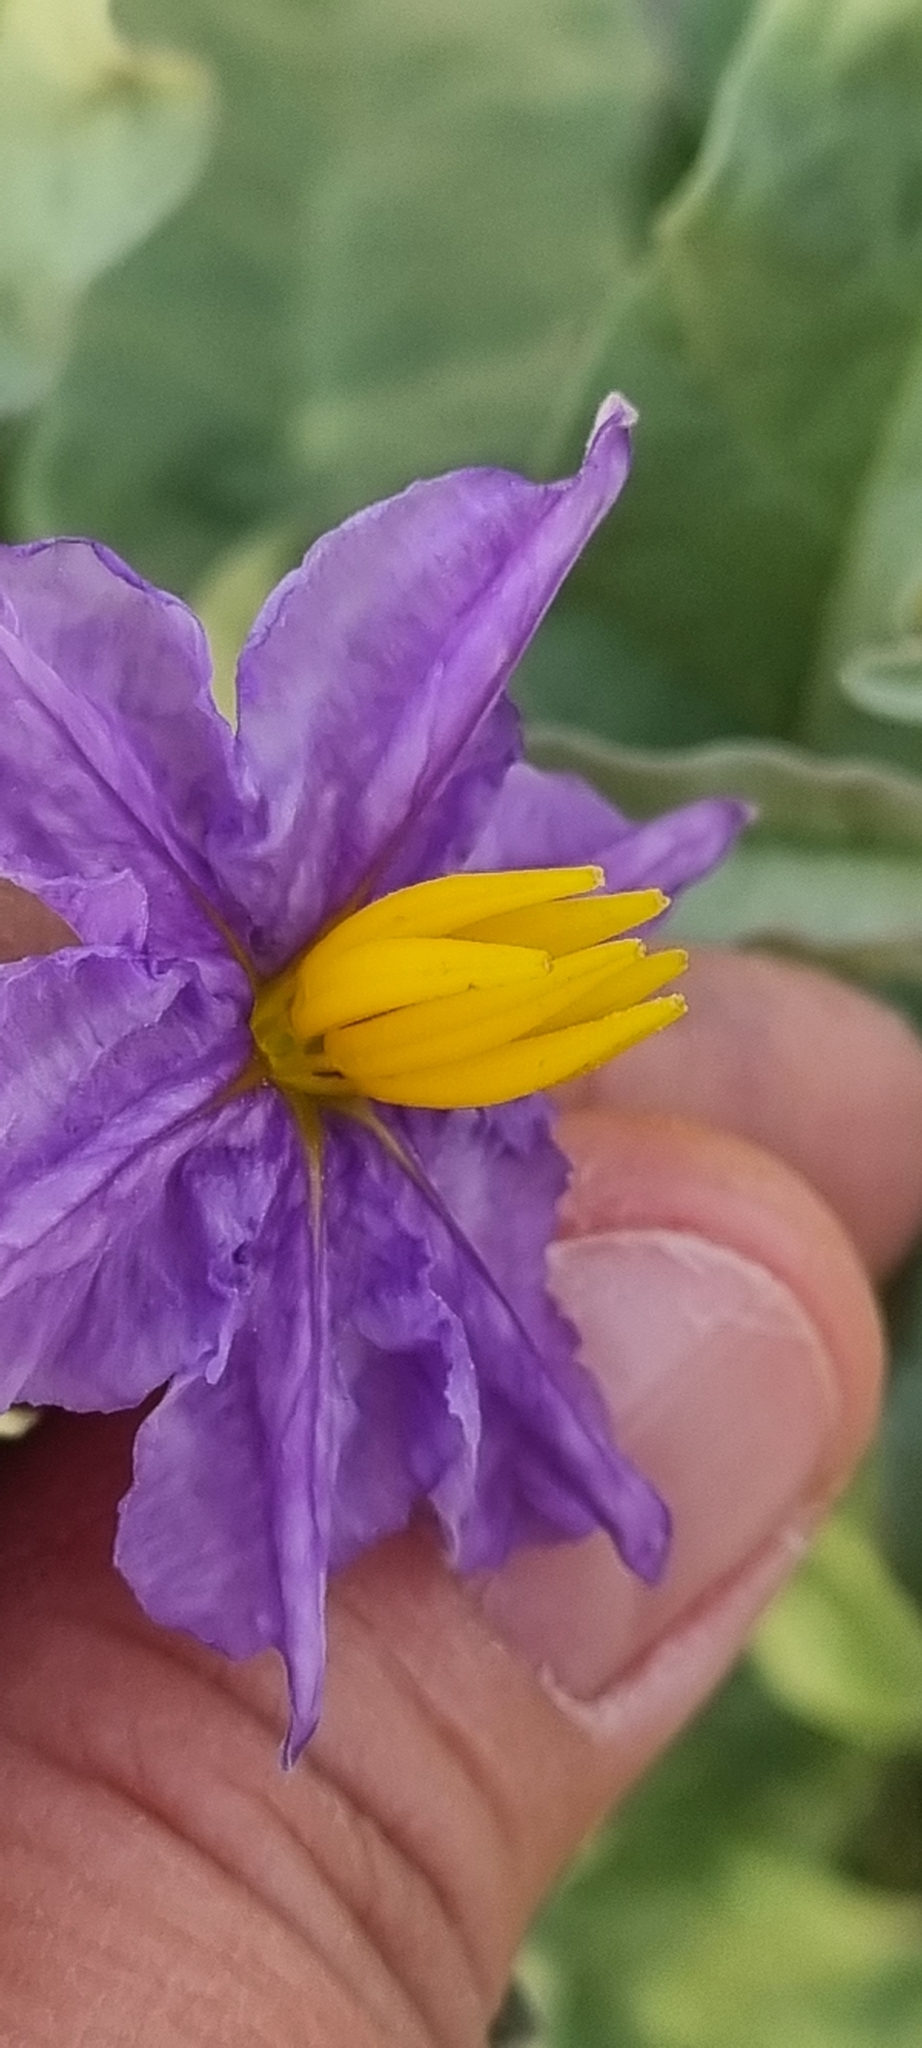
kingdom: Plantae
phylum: Tracheophyta
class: Magnoliopsida
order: Solanales
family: Solanaceae
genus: Solanum
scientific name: Solanum elaeagnifolium
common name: Silverleaf nightshade
